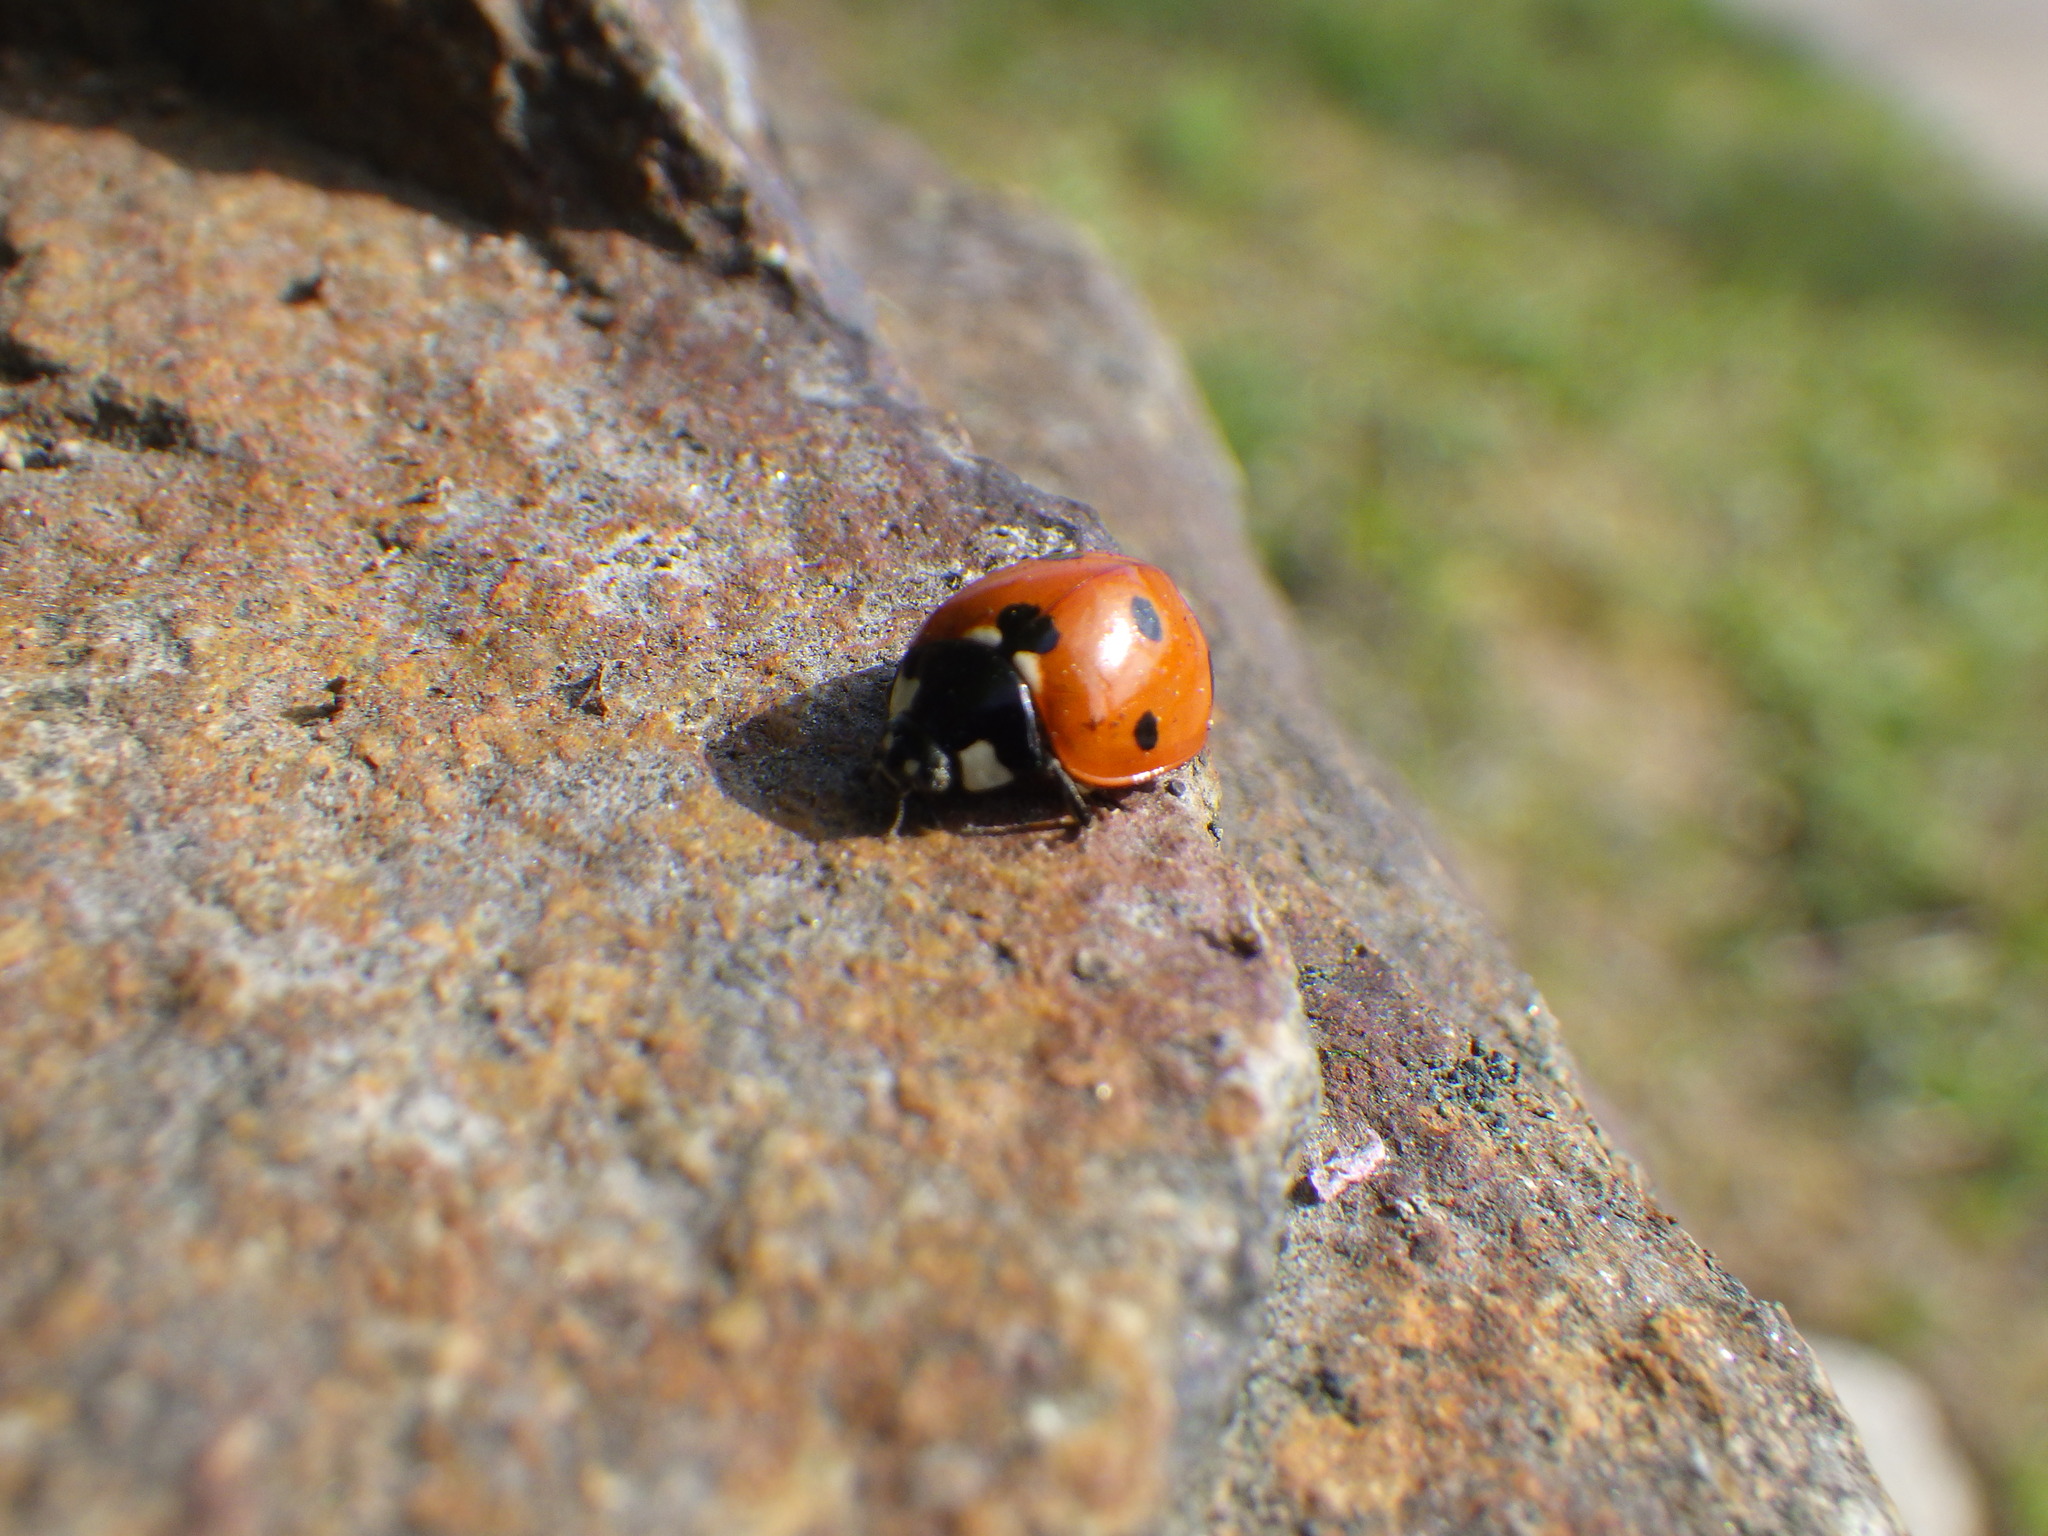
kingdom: Animalia
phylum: Arthropoda
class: Insecta
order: Coleoptera
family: Coccinellidae
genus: Coccinella
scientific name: Coccinella septempunctata
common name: Sevenspotted lady beetle
